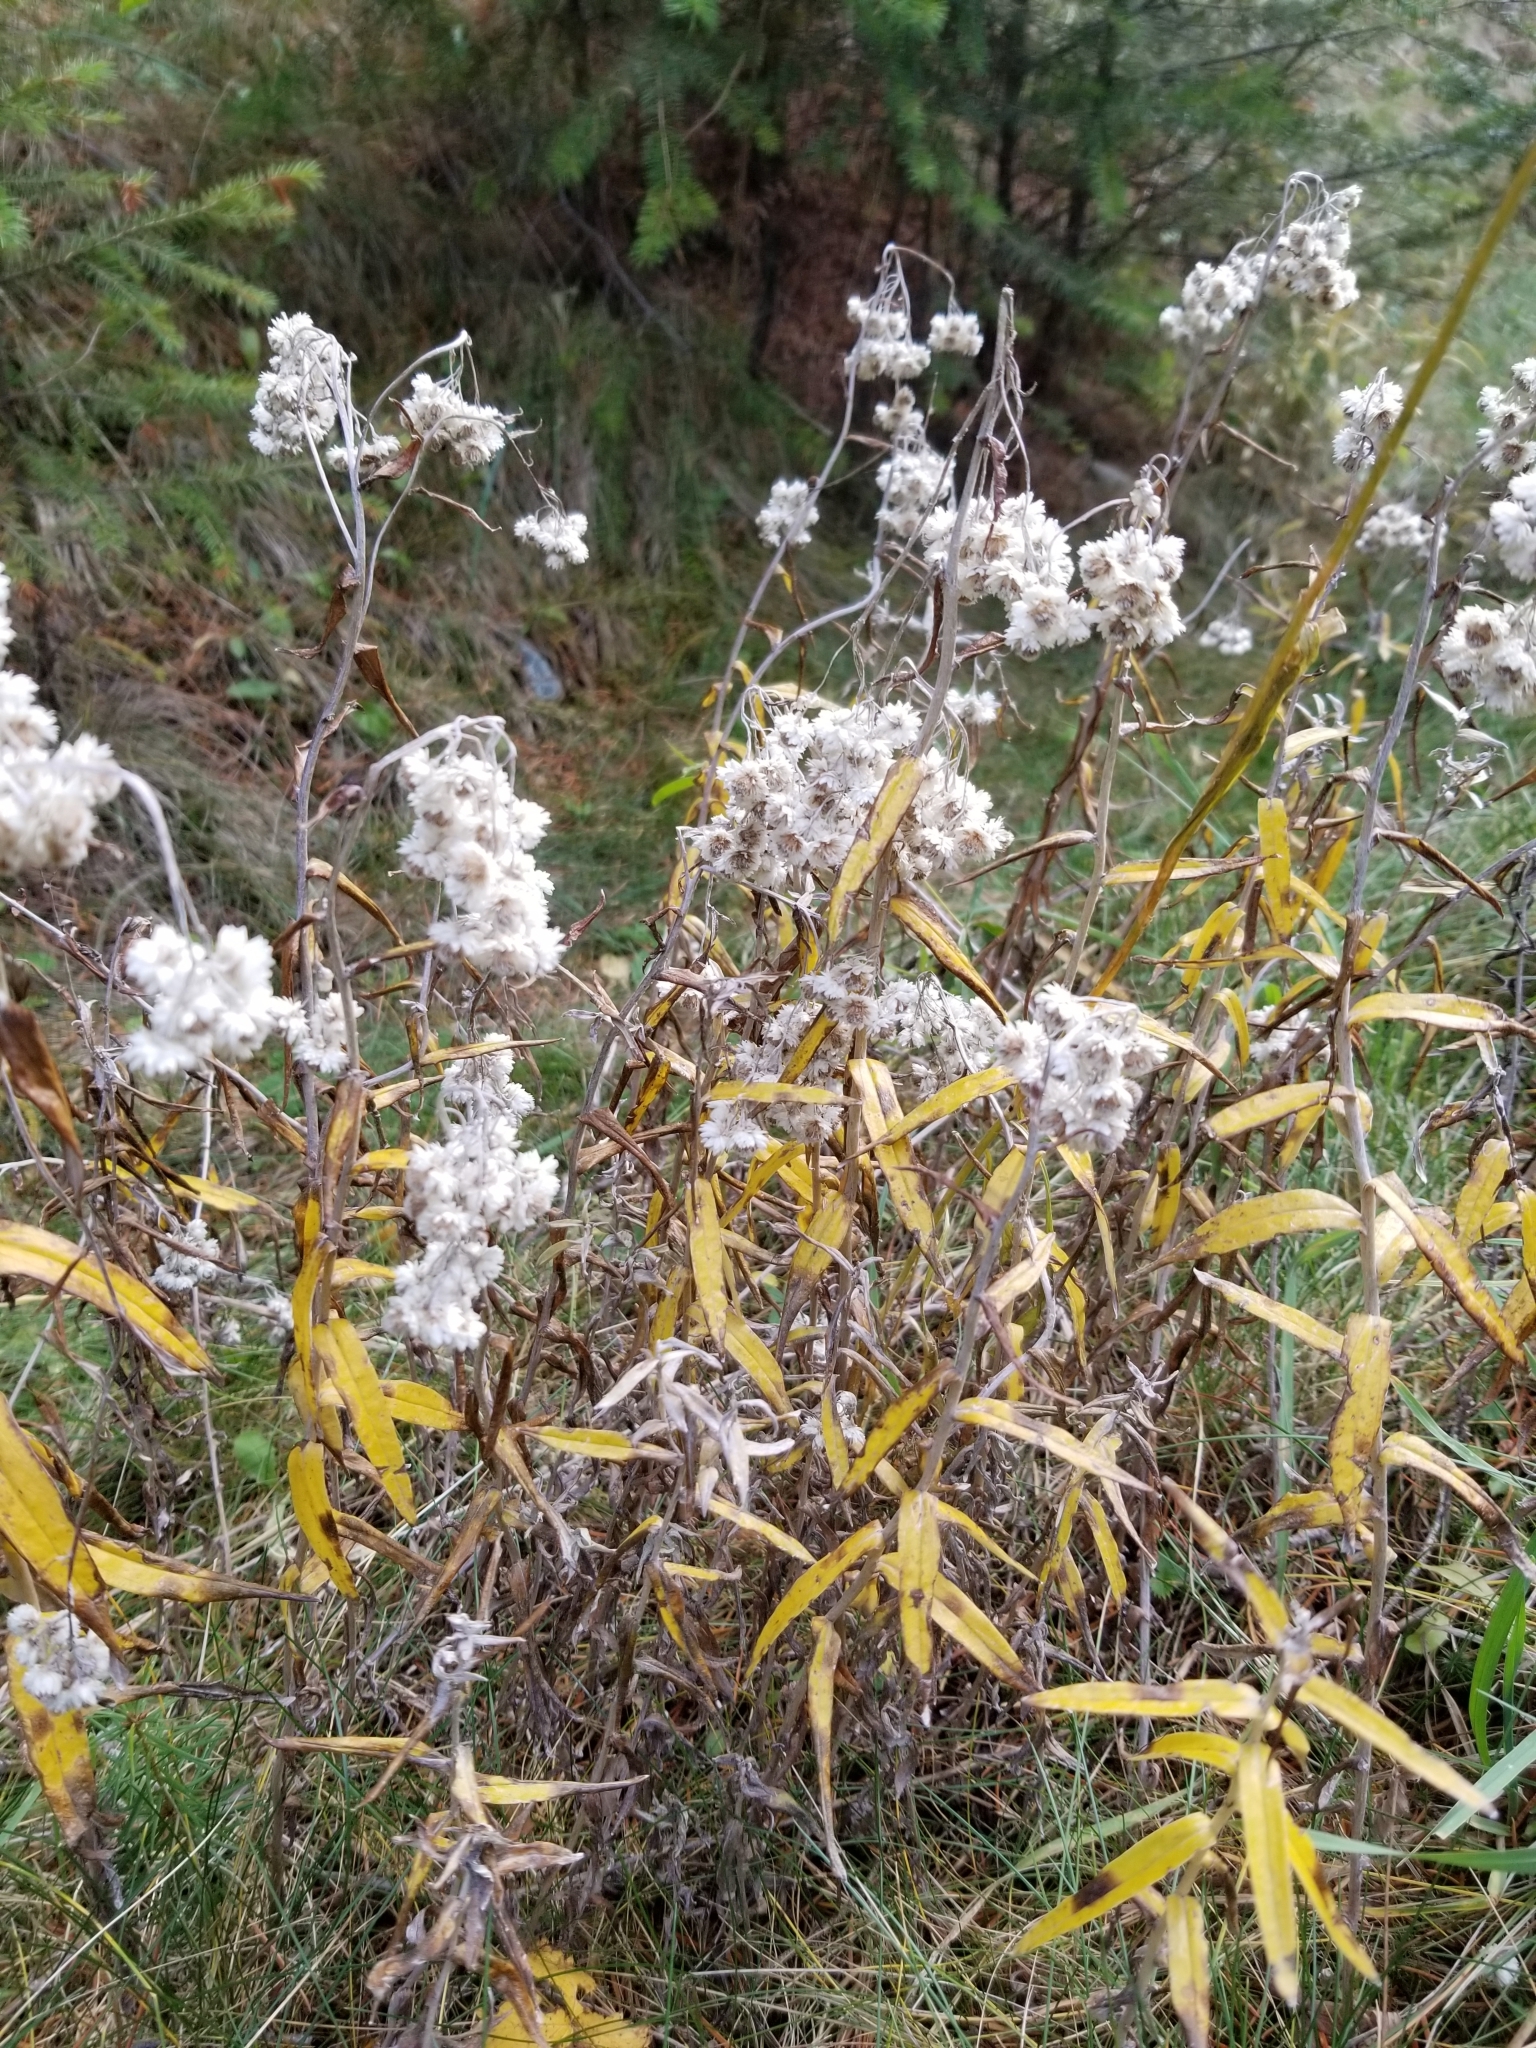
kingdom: Plantae
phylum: Tracheophyta
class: Magnoliopsida
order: Asterales
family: Asteraceae
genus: Anaphalis
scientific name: Anaphalis margaritacea
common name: Pearly everlasting
